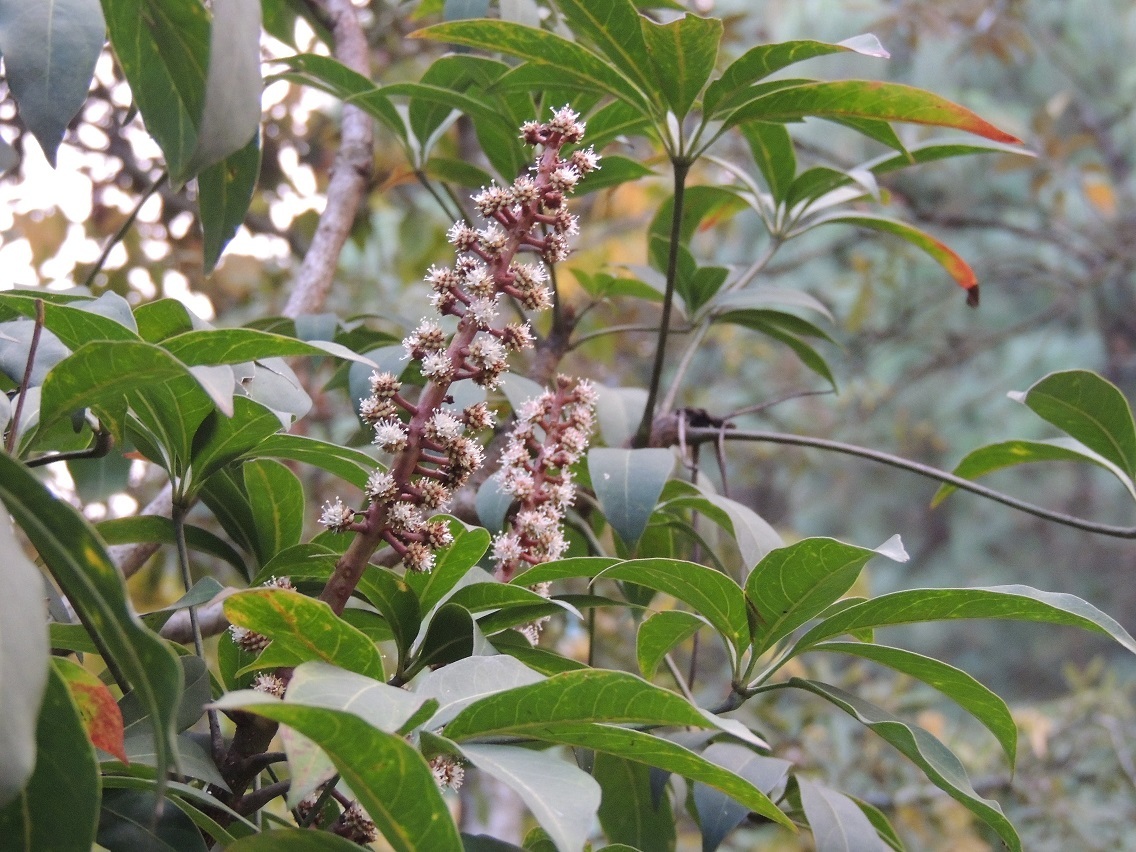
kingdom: Plantae
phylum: Tracheophyta
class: Magnoliopsida
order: Apiales
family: Araliaceae
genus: Oreopanax
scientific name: Oreopanax xalapensis
